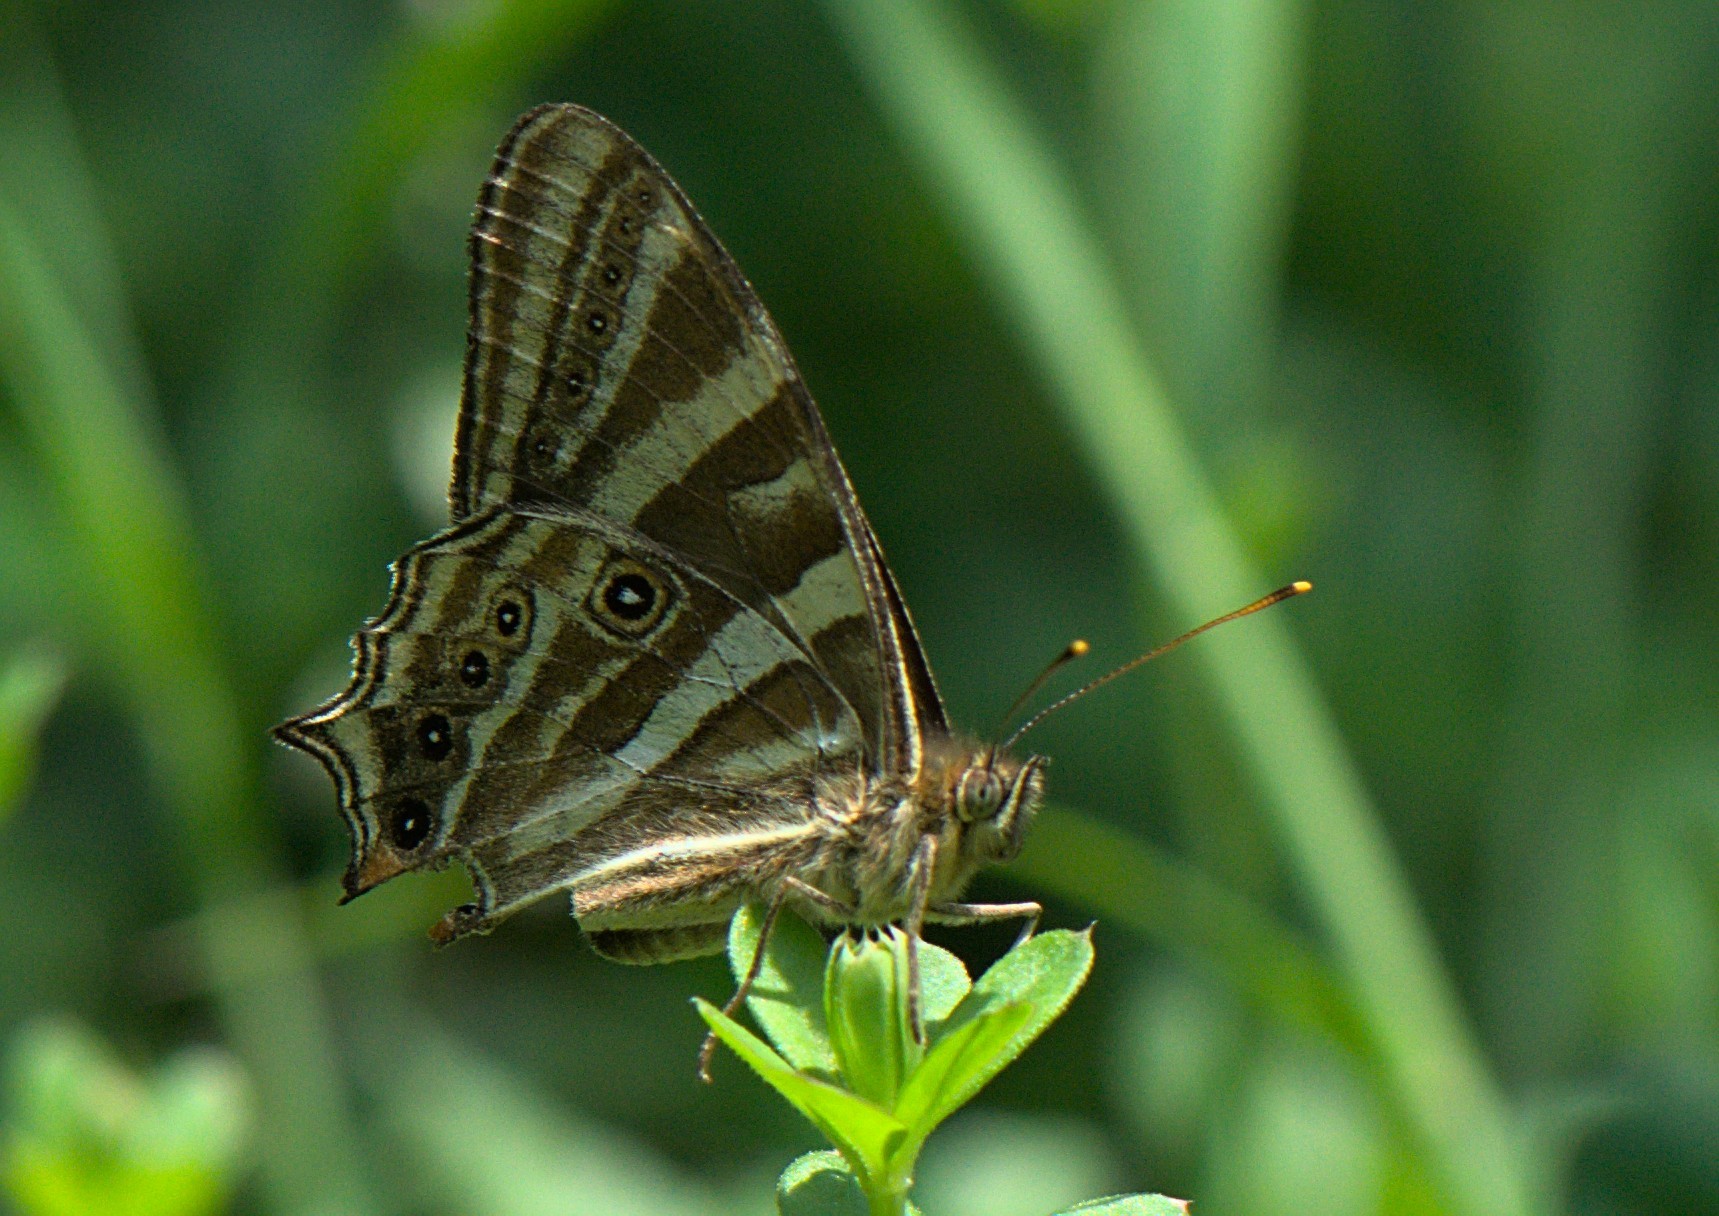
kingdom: Animalia
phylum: Arthropoda
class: Insecta
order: Lepidoptera
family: Nymphalidae
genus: Lethe
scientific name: Lethe baladeva
